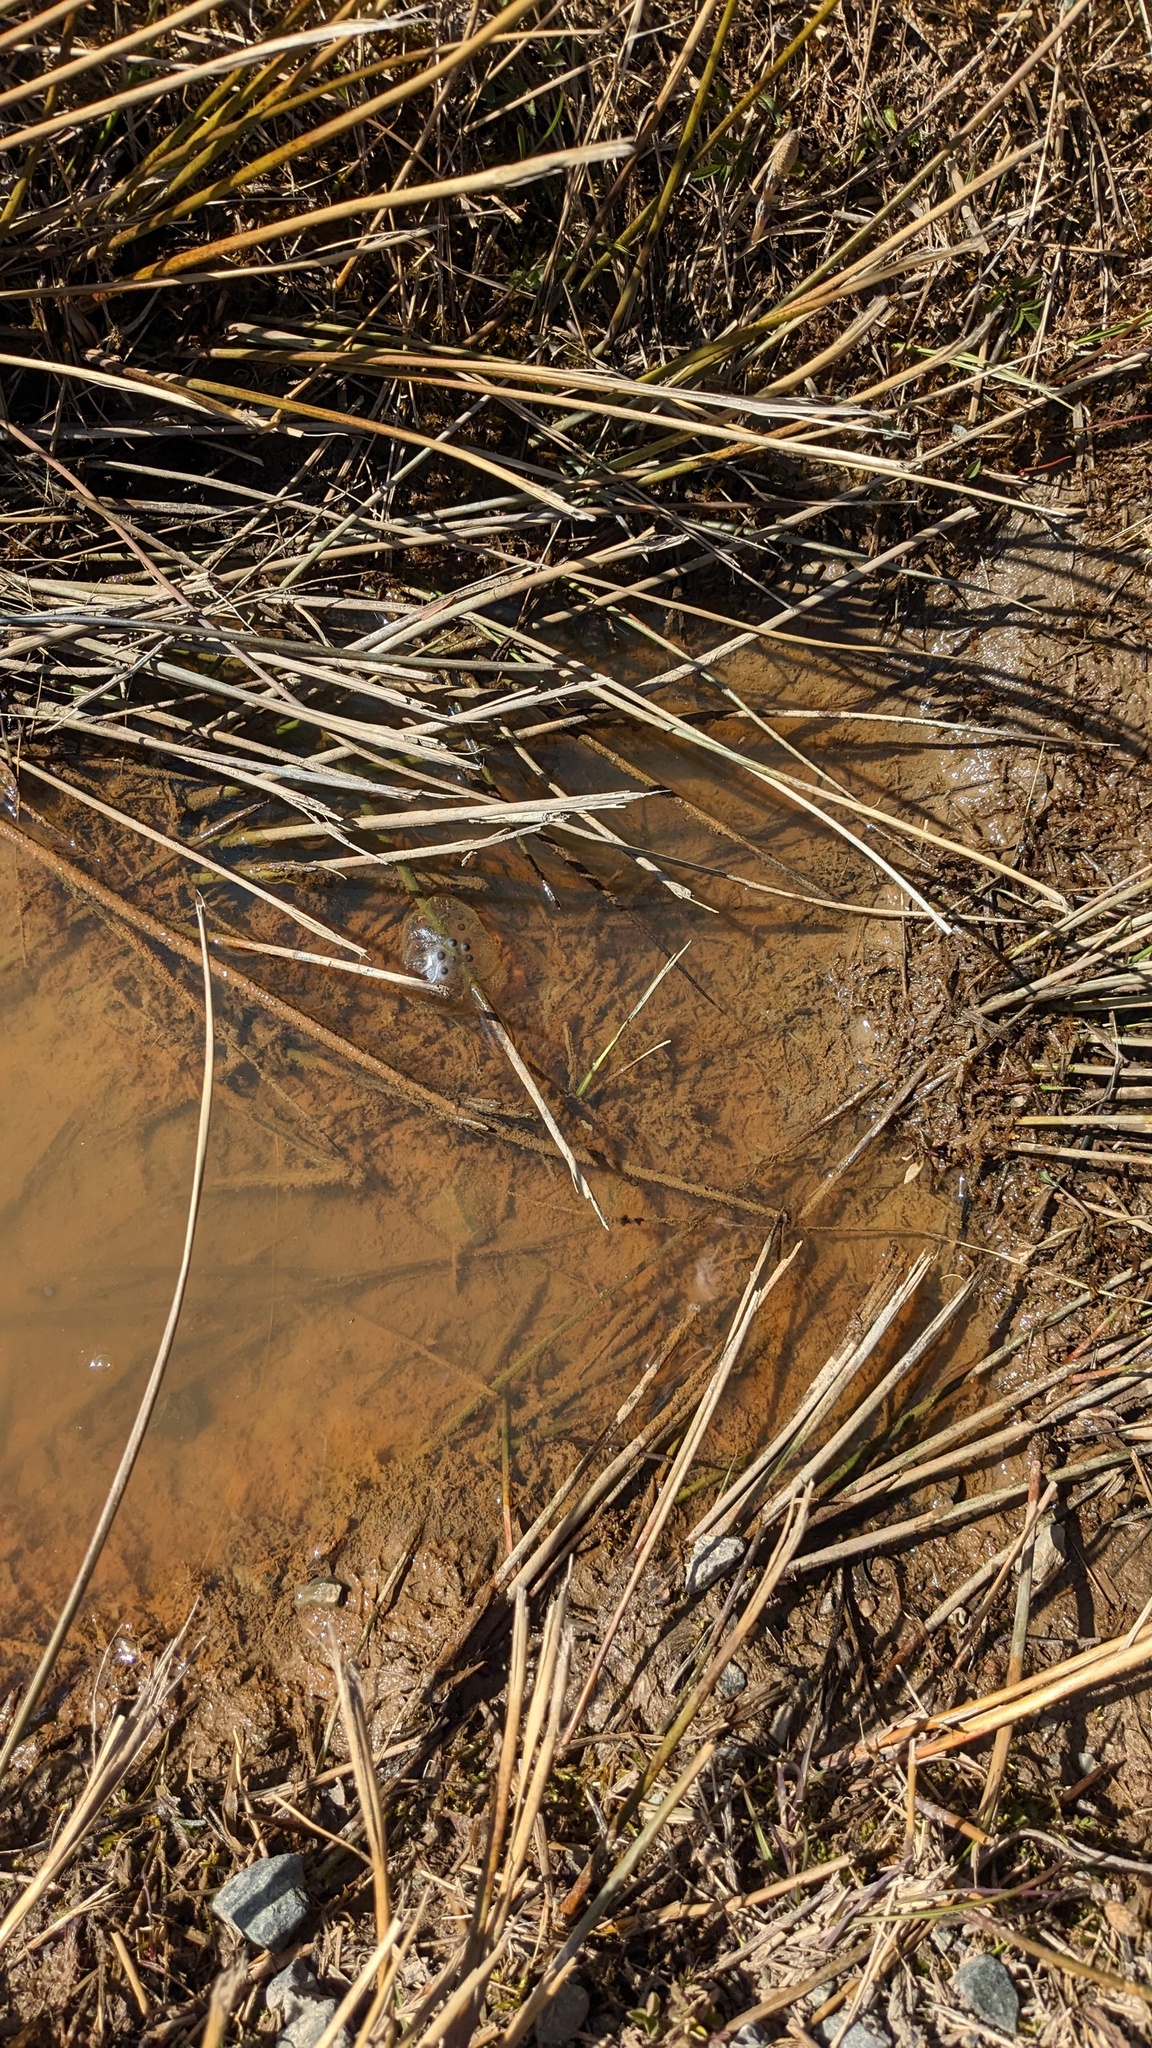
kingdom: Animalia
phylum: Chordata
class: Amphibia
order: Caudata
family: Ambystomatidae
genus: Ambystoma
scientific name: Ambystoma maculatum
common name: Spotted salamander
